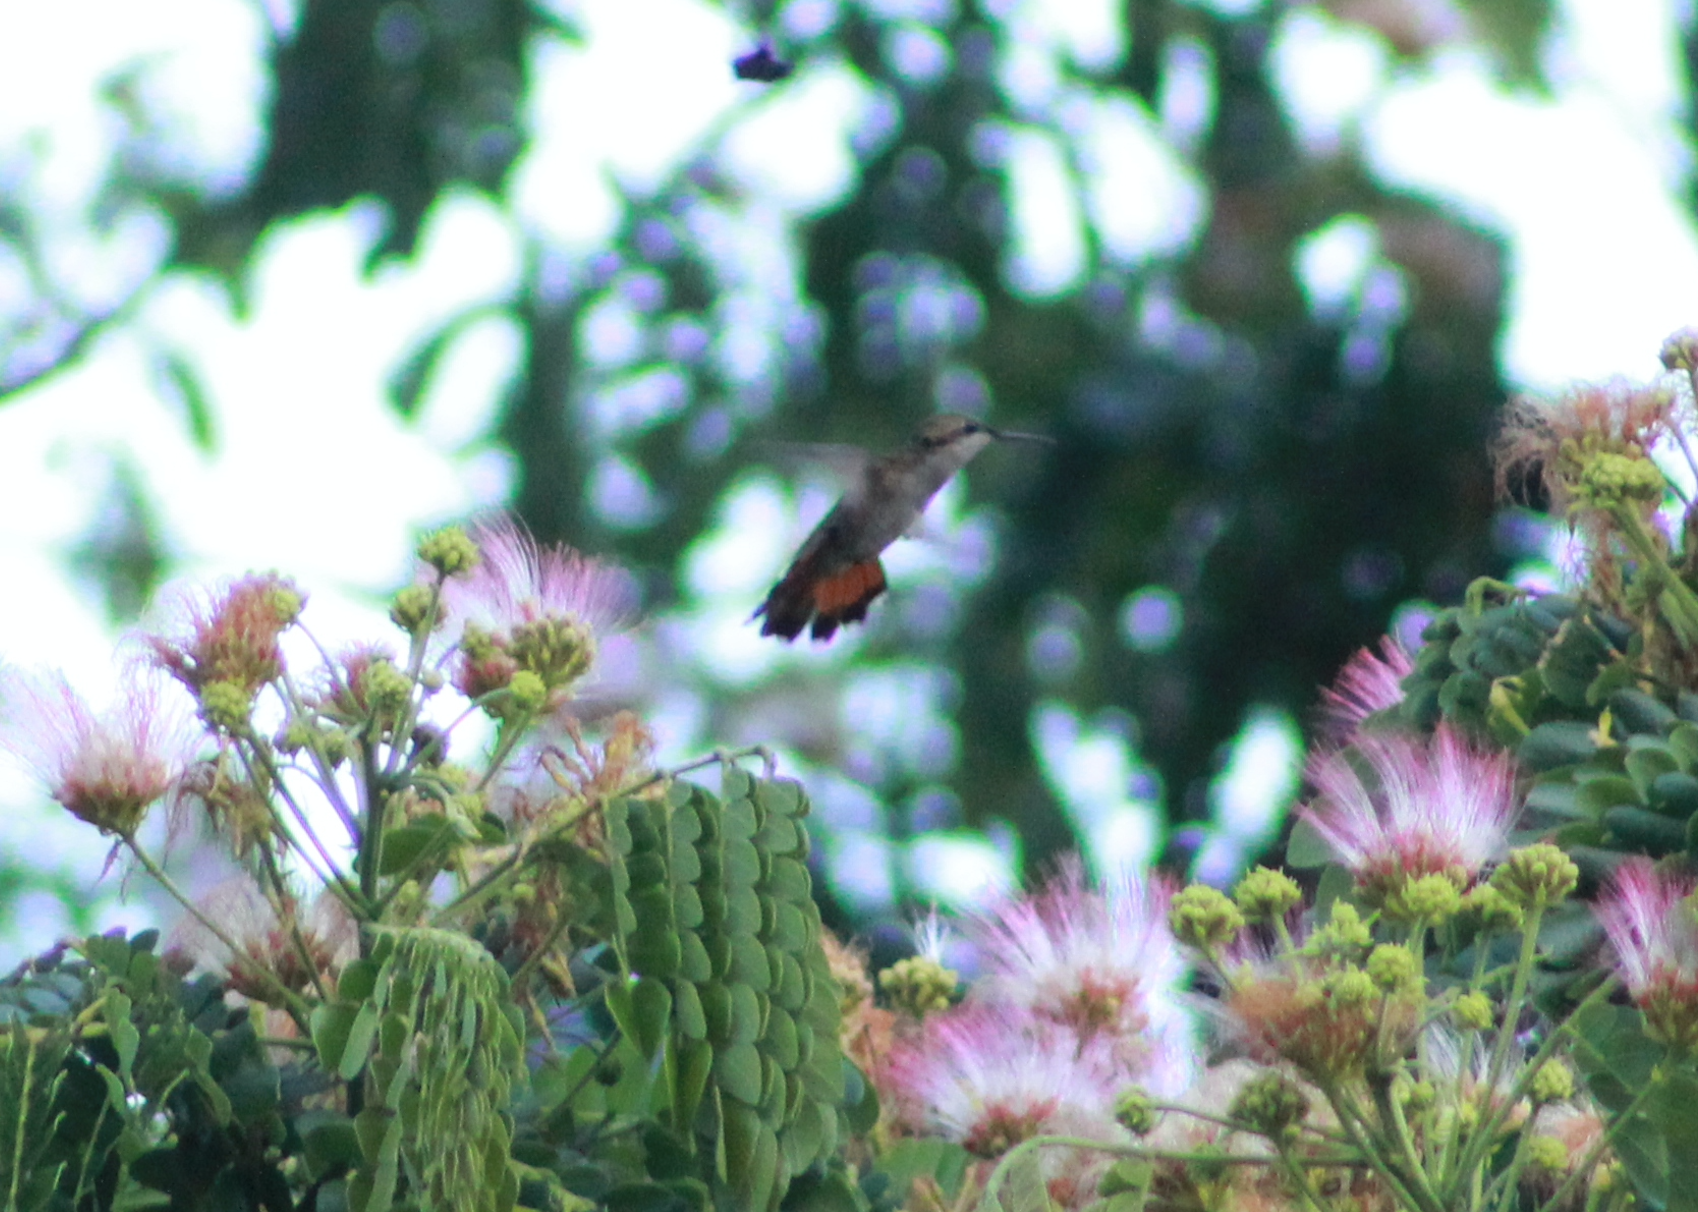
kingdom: Animalia
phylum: Chordata
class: Aves
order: Apodiformes
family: Trochilidae
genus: Chrysolampis
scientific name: Chrysolampis mosquitus
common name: Ruby-topaz hummingbird
